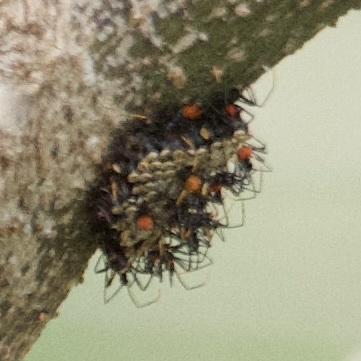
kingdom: Animalia
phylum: Arthropoda
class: Insecta
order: Hemiptera
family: Reduviidae
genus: Arilus
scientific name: Arilus cristatus
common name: North american wheel bug
